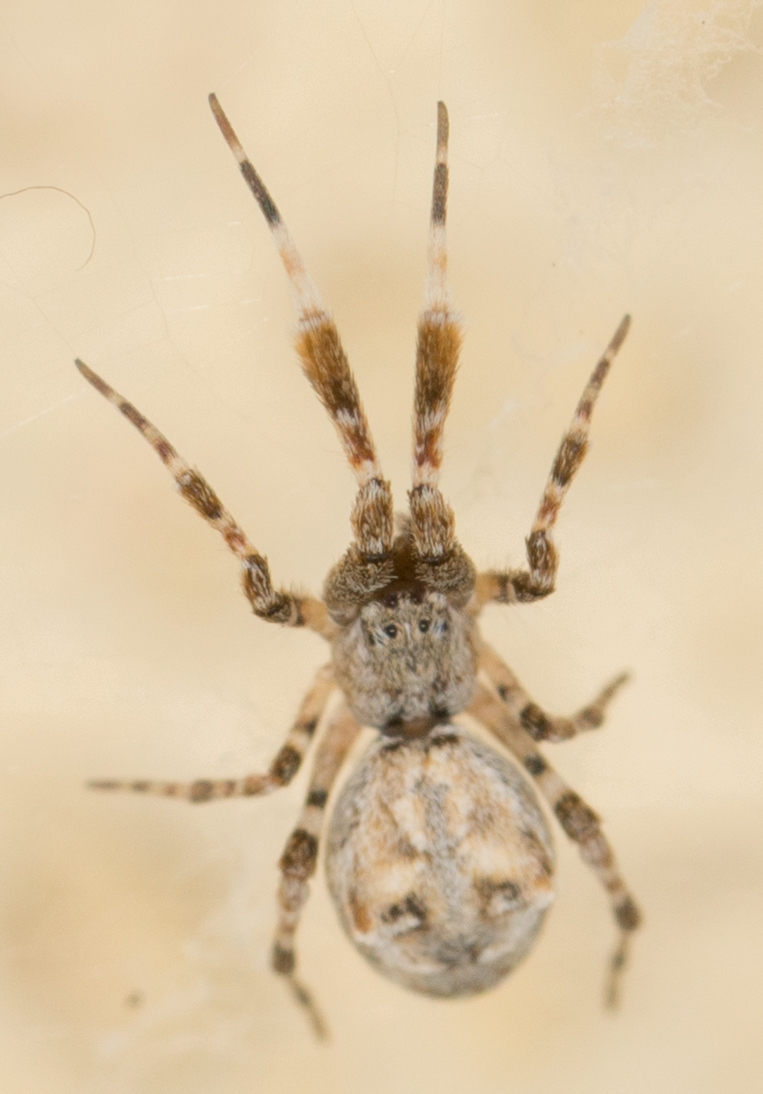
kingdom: Animalia
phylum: Arthropoda
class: Arachnida
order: Araneae
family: Uloboridae
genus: Uloborus
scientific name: Uloborus diversus
